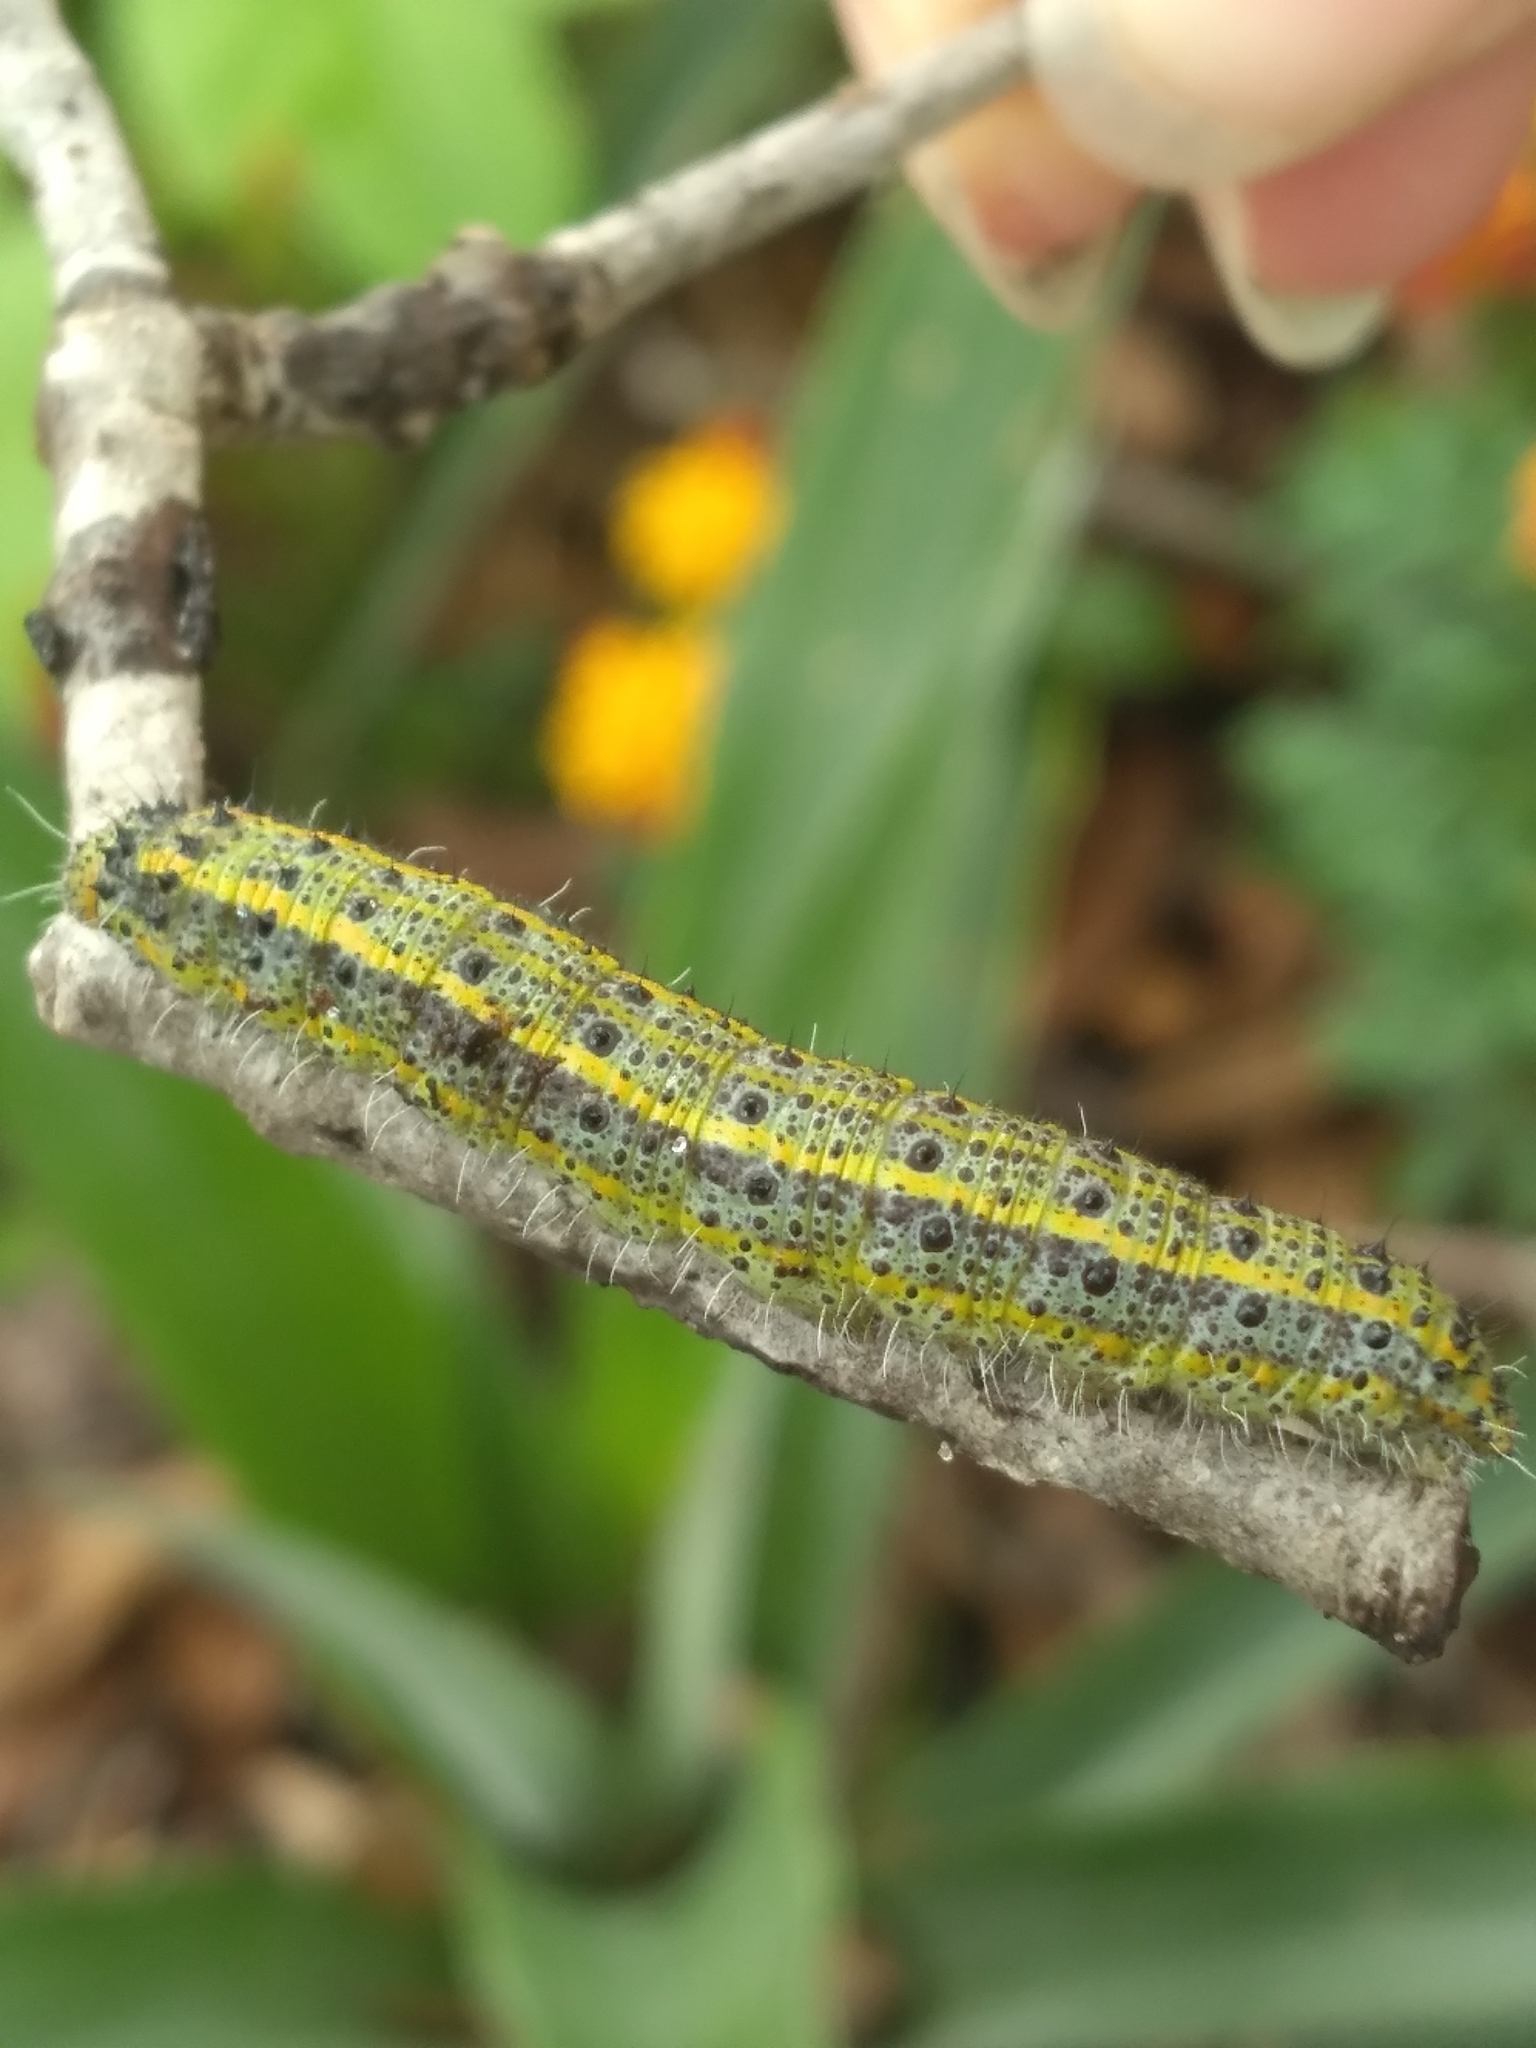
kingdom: Animalia
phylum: Arthropoda
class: Insecta
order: Lepidoptera
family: Pieridae
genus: Ascia
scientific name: Ascia monuste
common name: Great southern white
